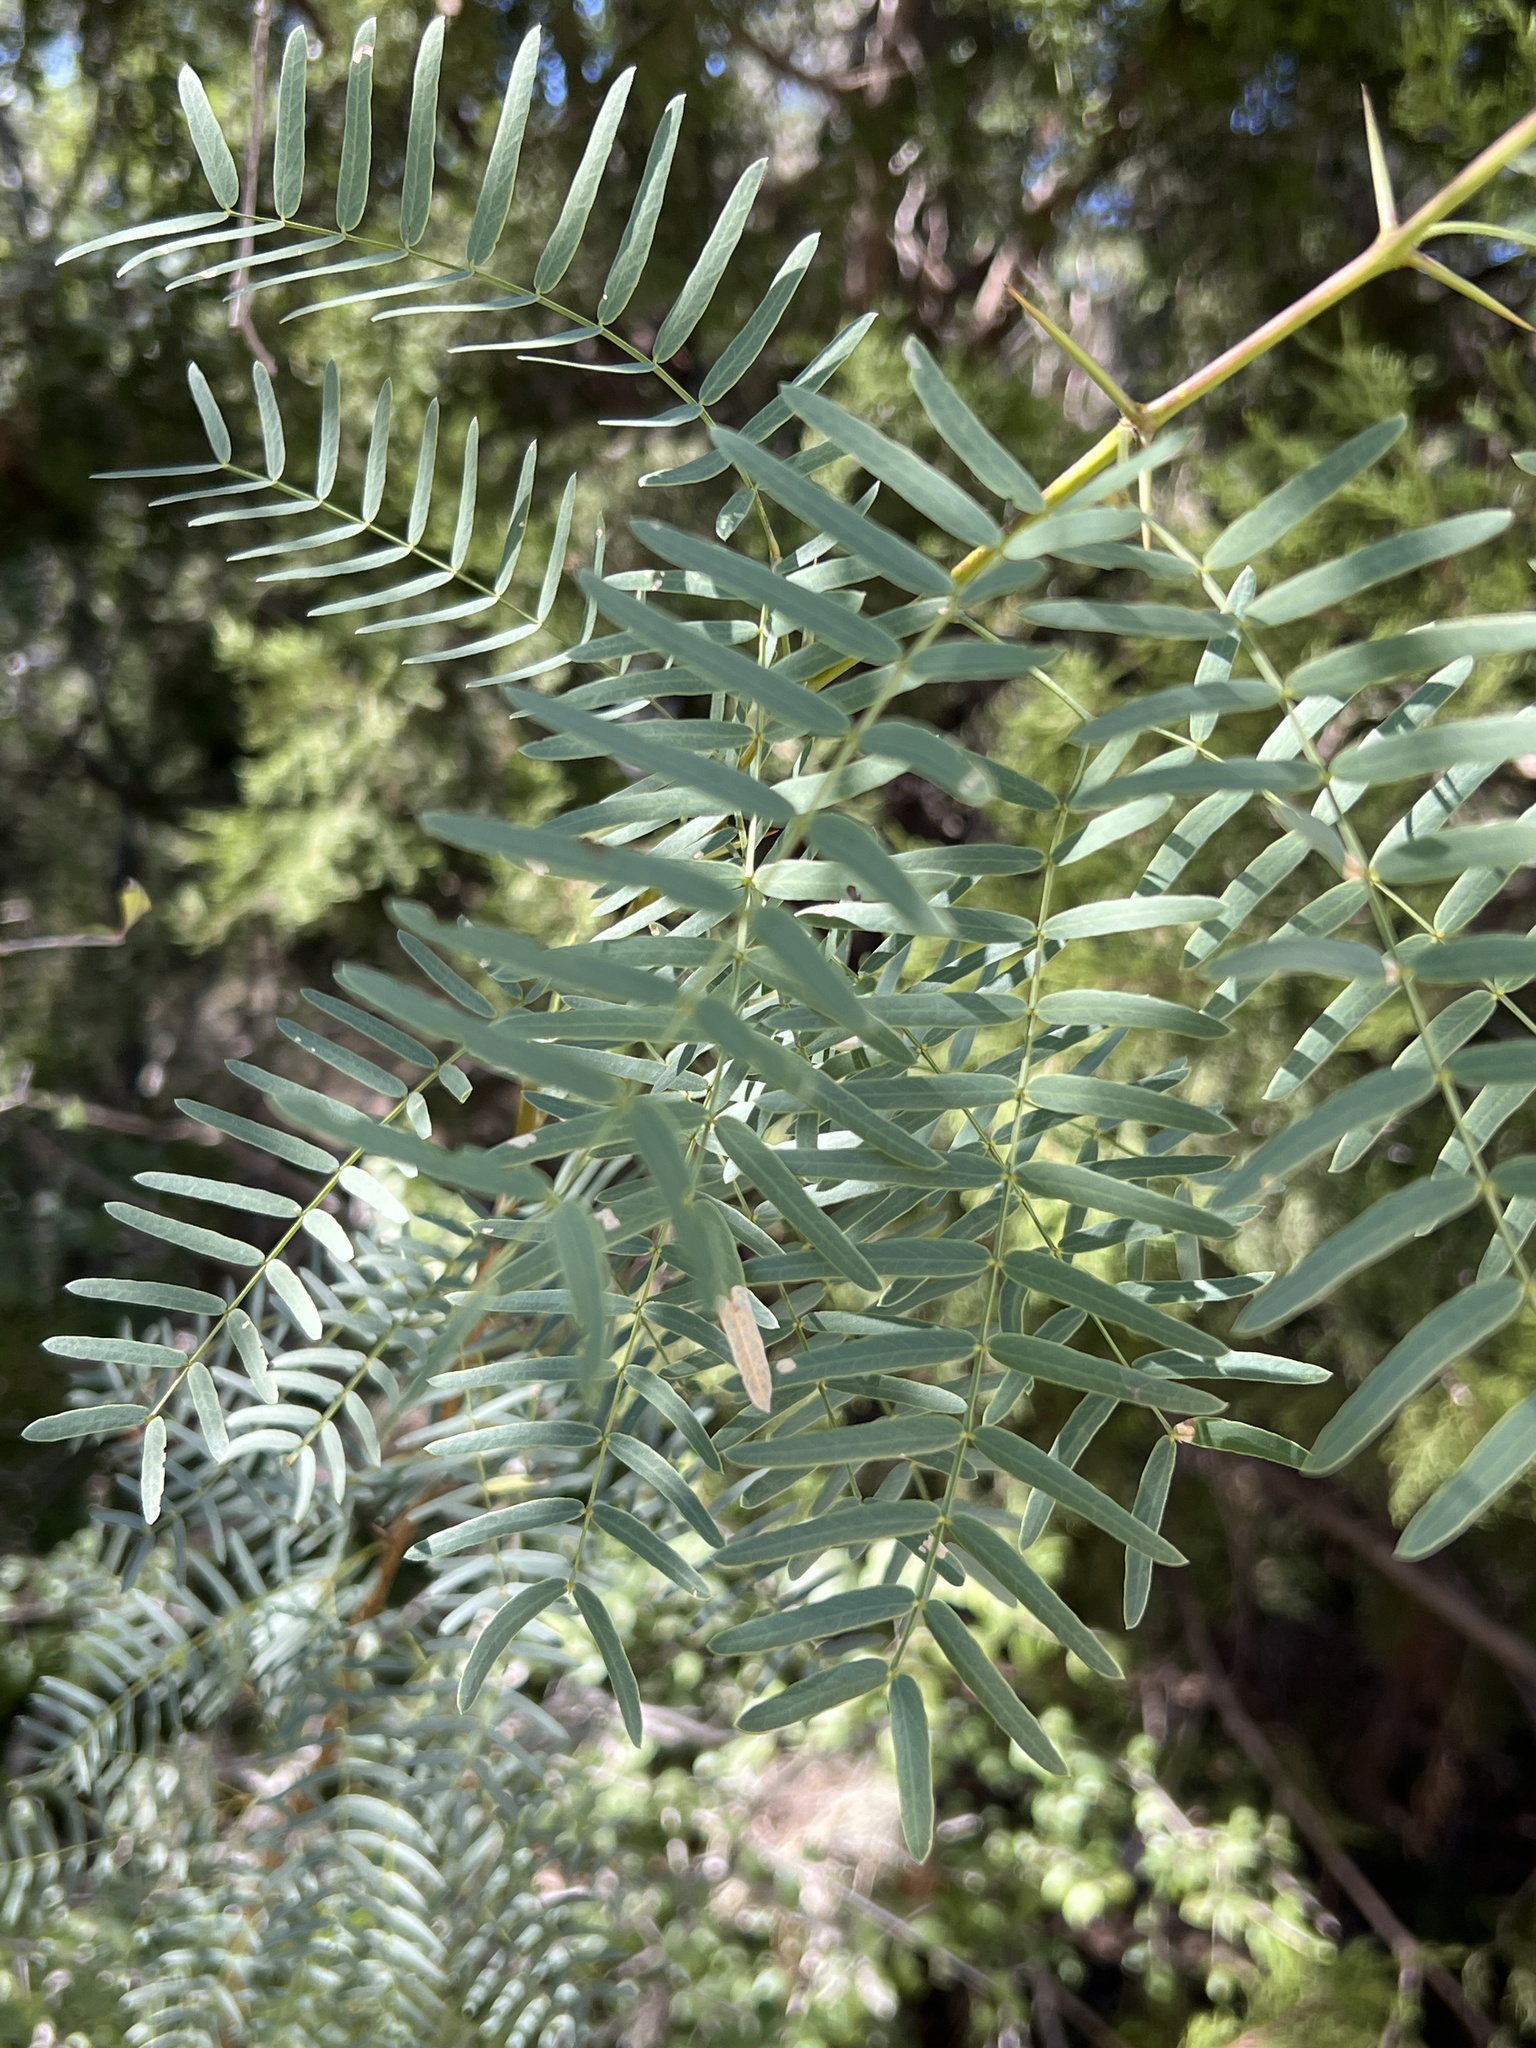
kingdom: Plantae
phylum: Tracheophyta
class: Magnoliopsida
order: Fabales
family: Fabaceae
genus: Prosopis
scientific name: Prosopis glandulosa
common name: Honey mesquite
